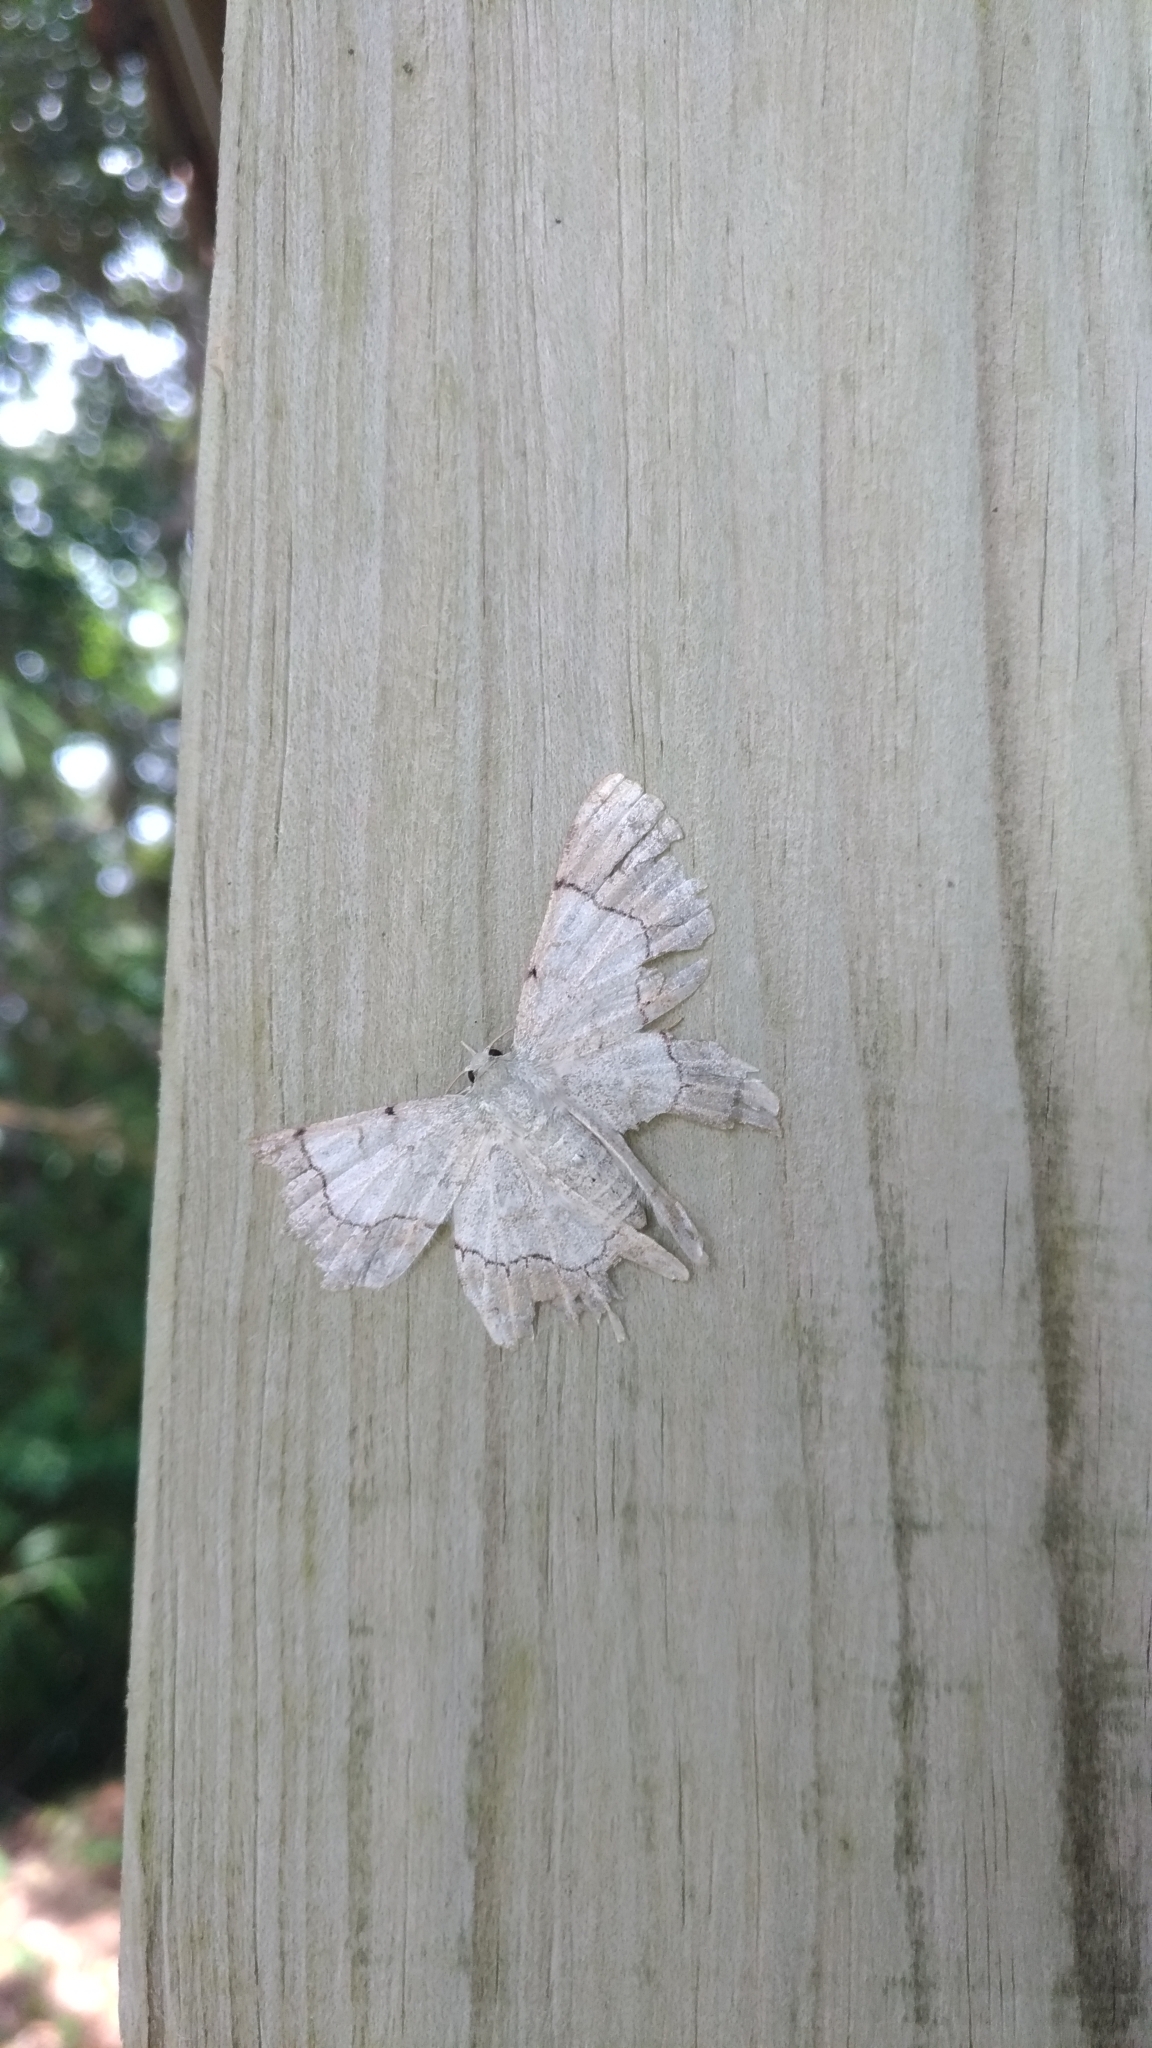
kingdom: Animalia
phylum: Arthropoda
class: Insecta
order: Lepidoptera
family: Geometridae
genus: Pingasa
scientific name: Pingasa ruginaria
